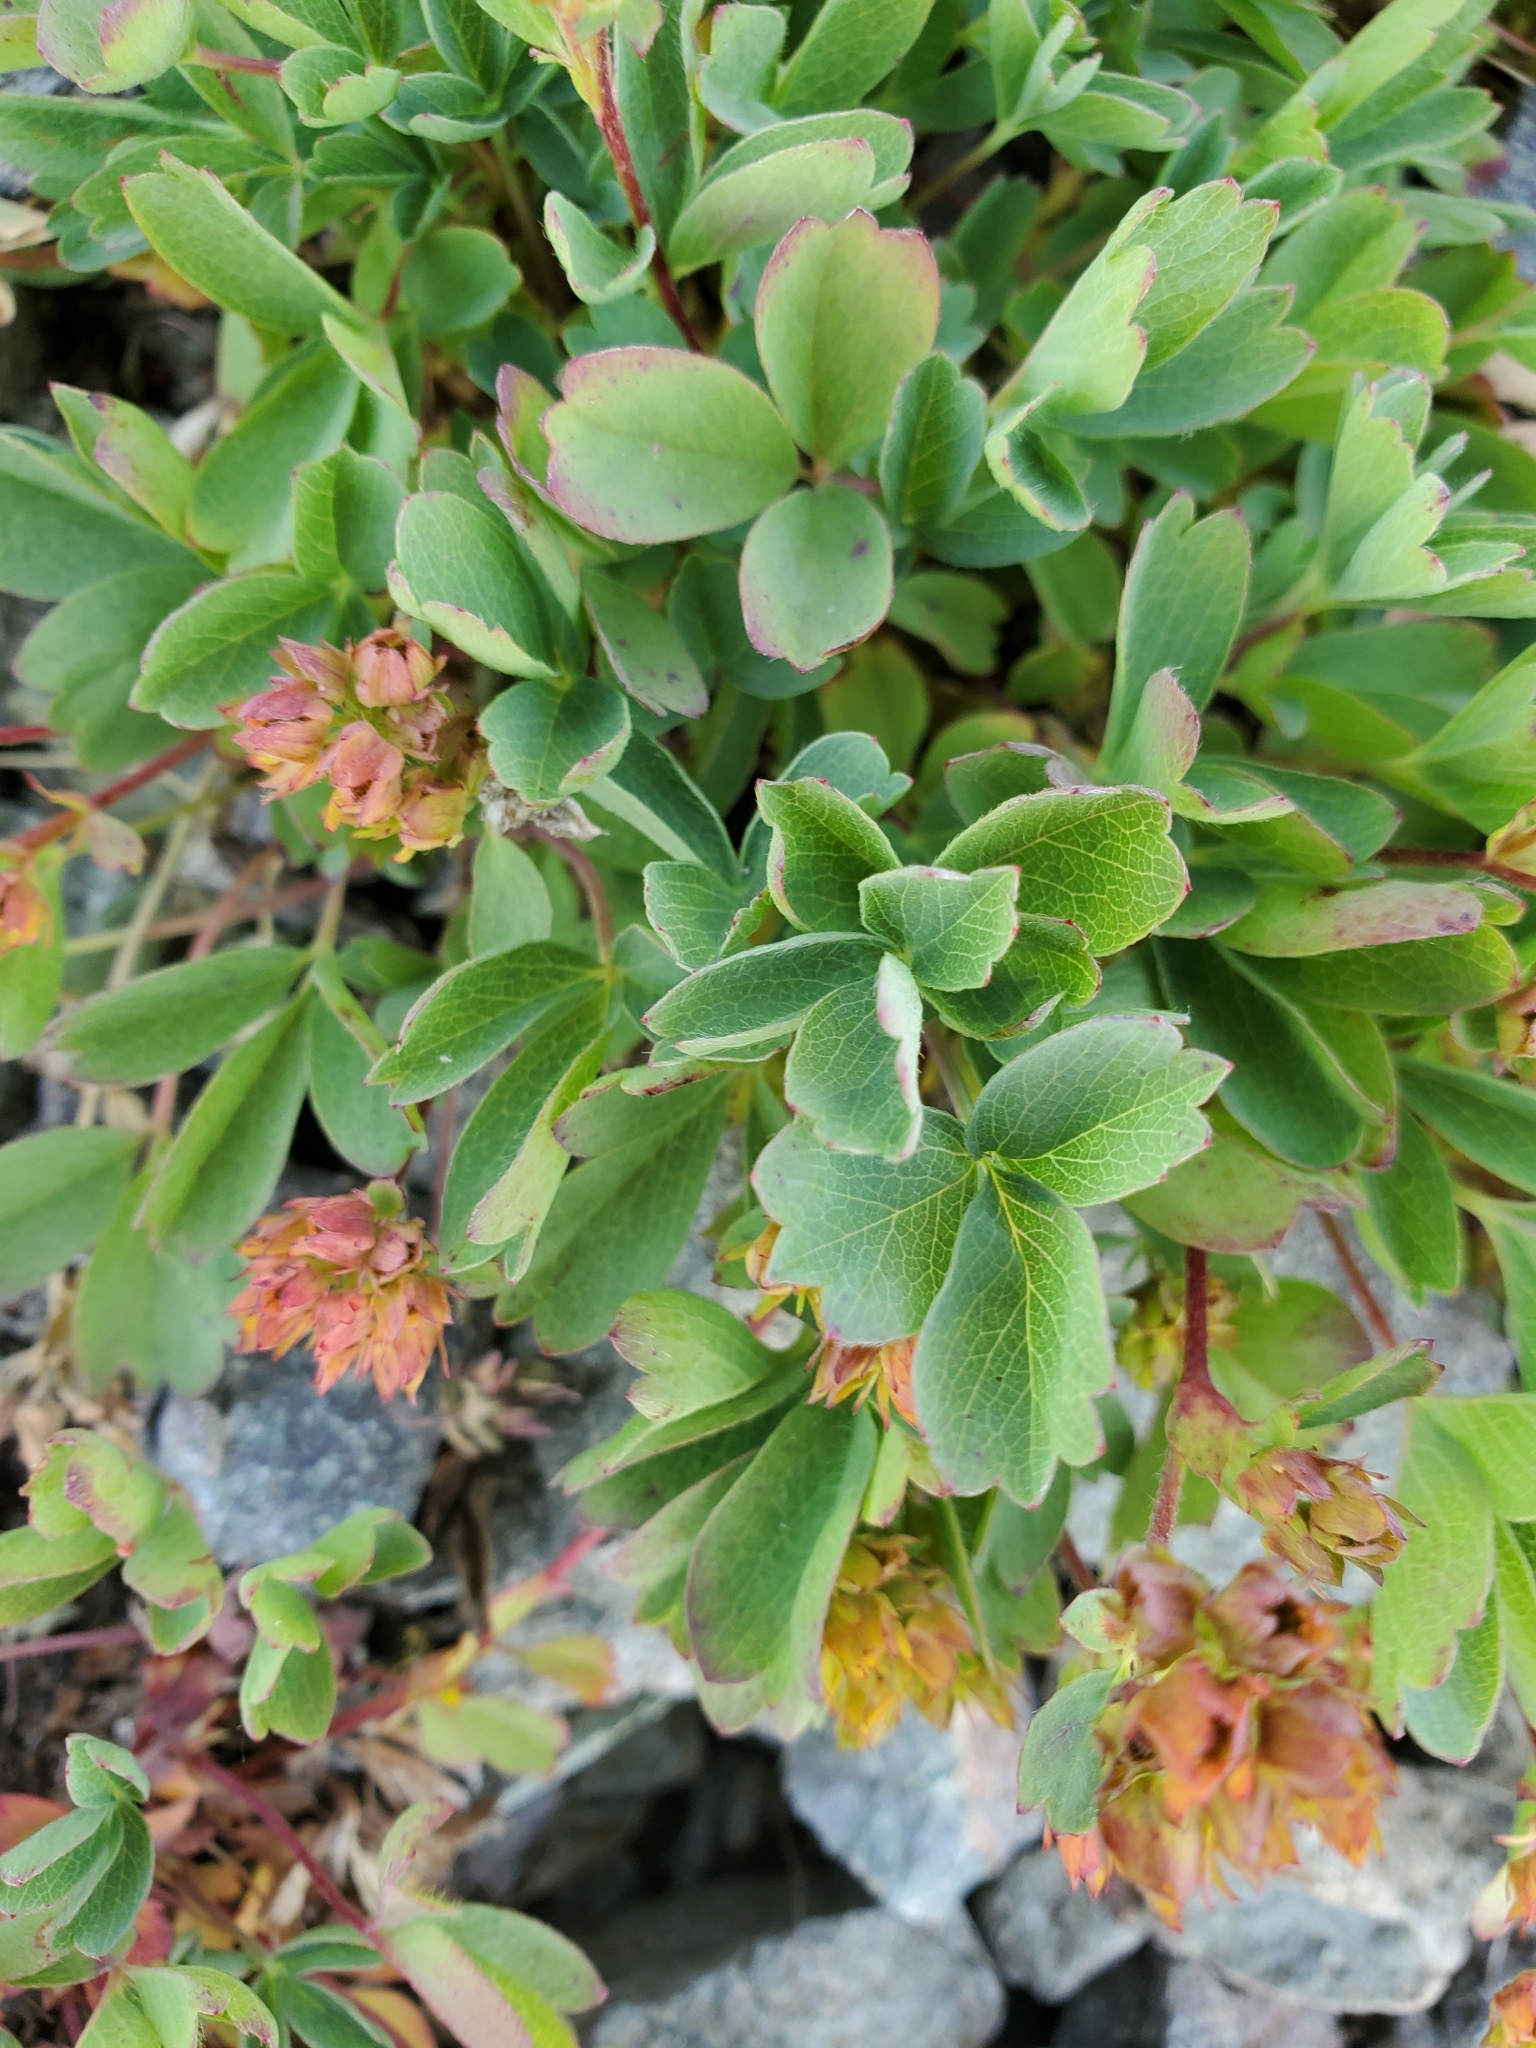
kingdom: Plantae
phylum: Tracheophyta
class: Magnoliopsida
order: Rosales
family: Rosaceae
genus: Sibbaldia
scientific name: Sibbaldia procumbens
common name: Creeping sibbaldia
